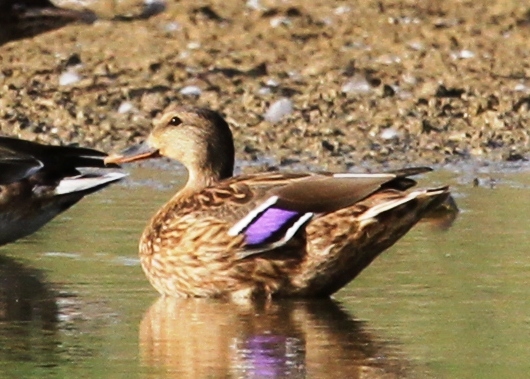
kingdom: Animalia
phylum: Chordata
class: Aves
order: Anseriformes
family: Anatidae
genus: Anas
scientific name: Anas platyrhynchos
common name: Mallard
